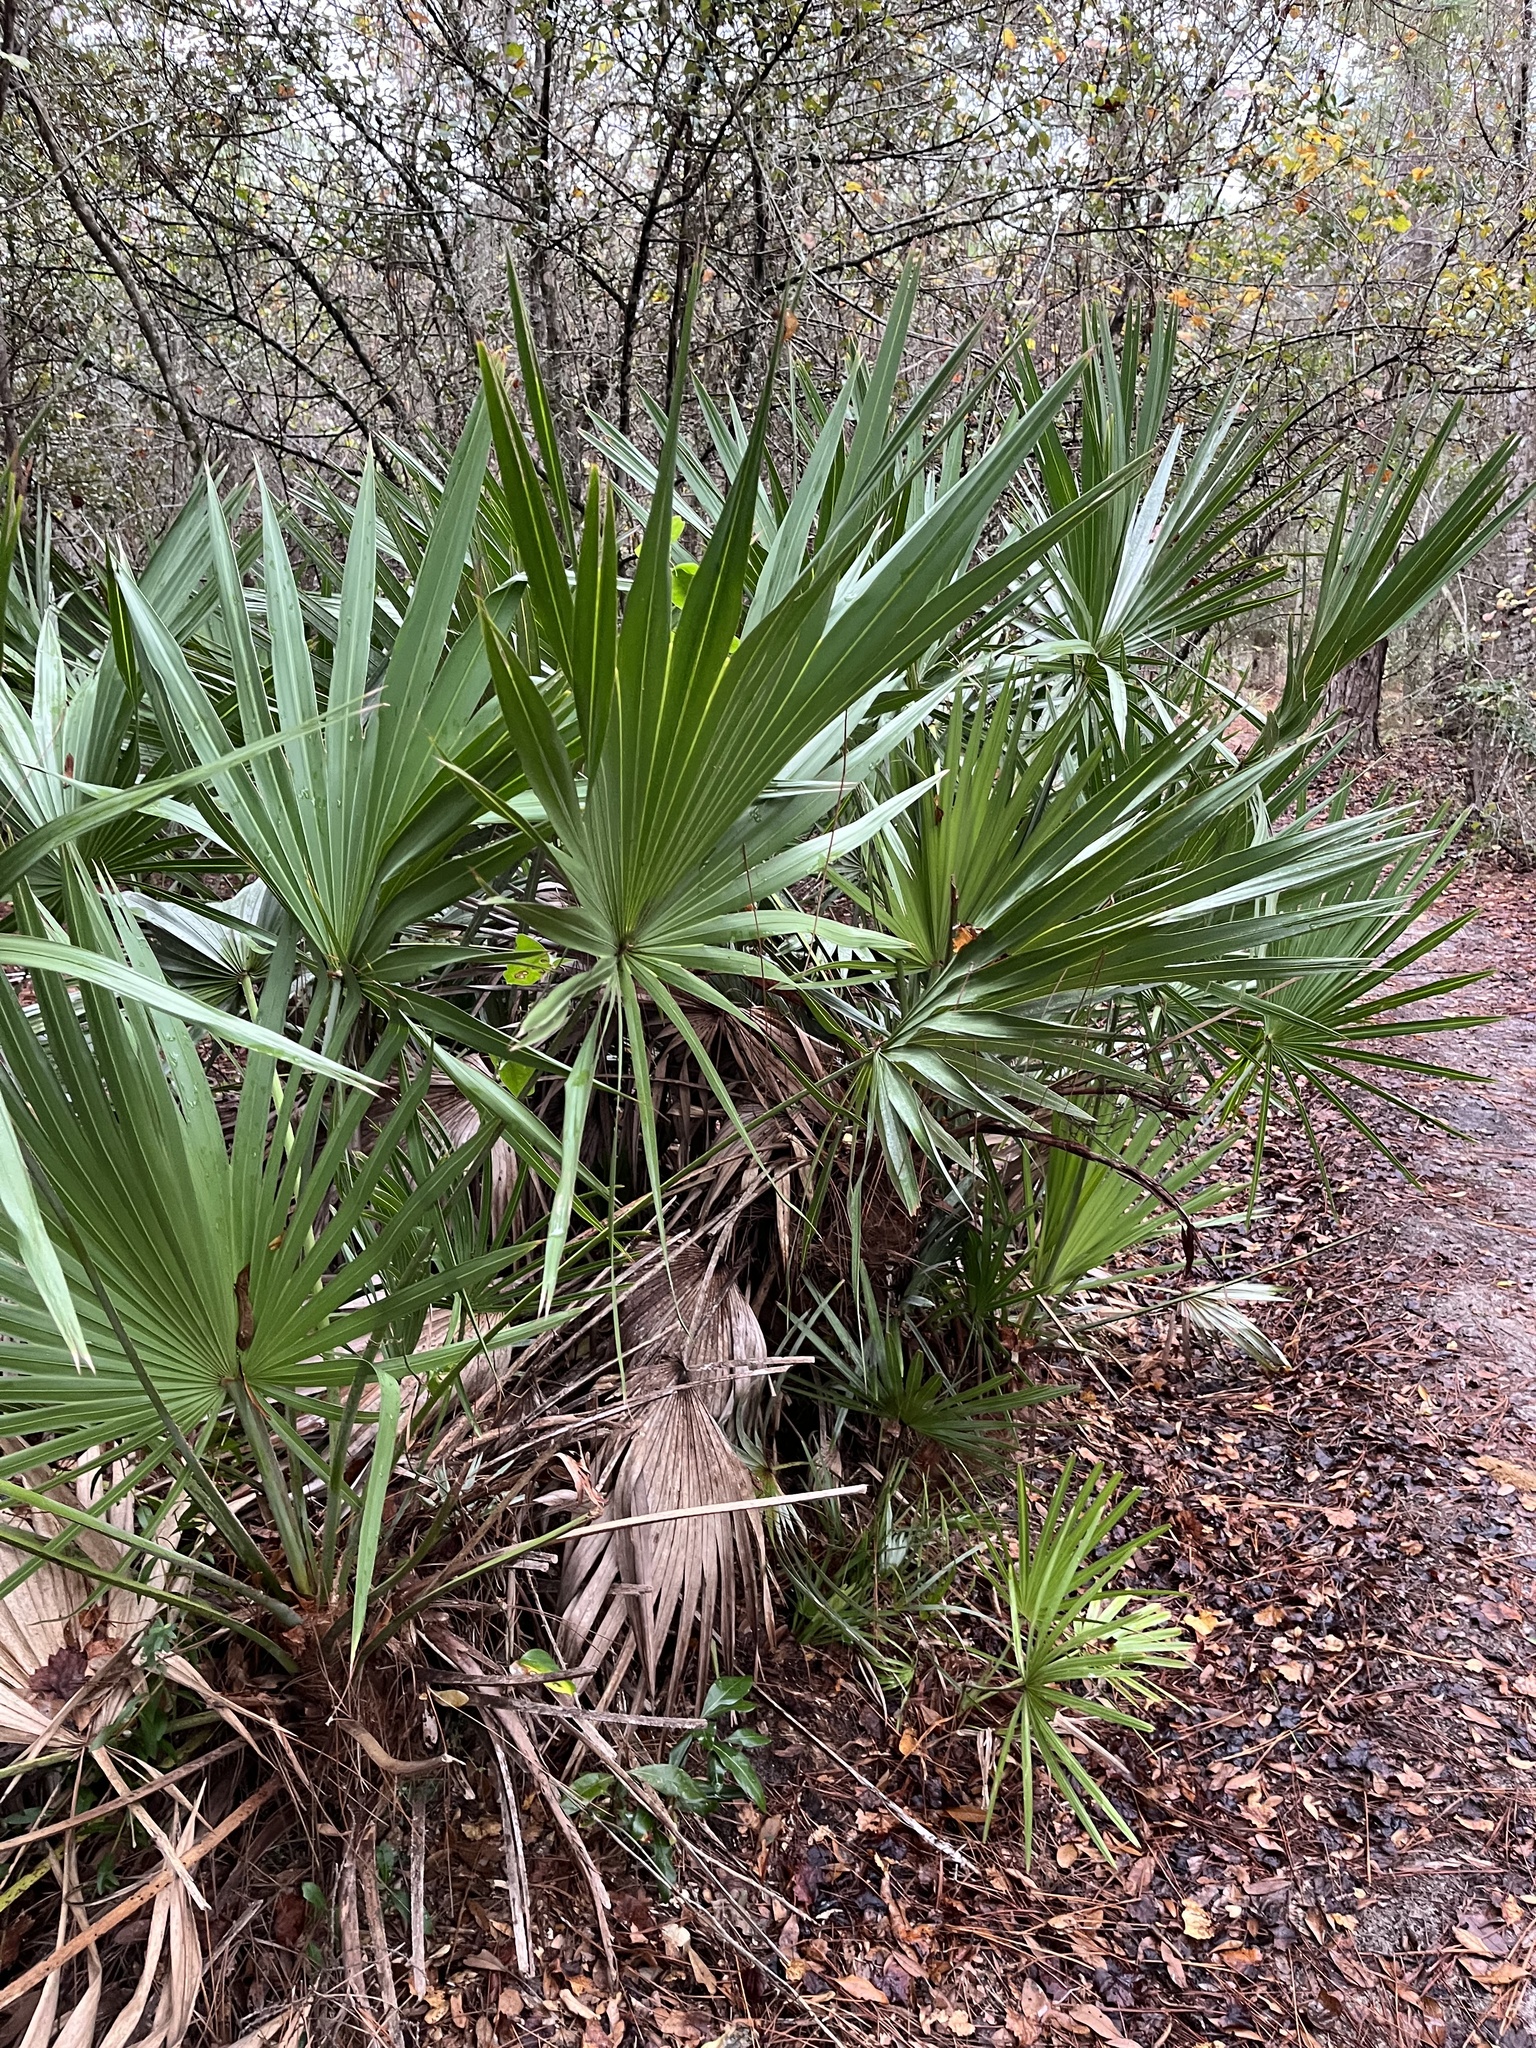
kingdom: Plantae
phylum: Tracheophyta
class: Liliopsida
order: Arecales
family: Arecaceae
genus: Serenoa
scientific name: Serenoa repens
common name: Saw-palmetto
